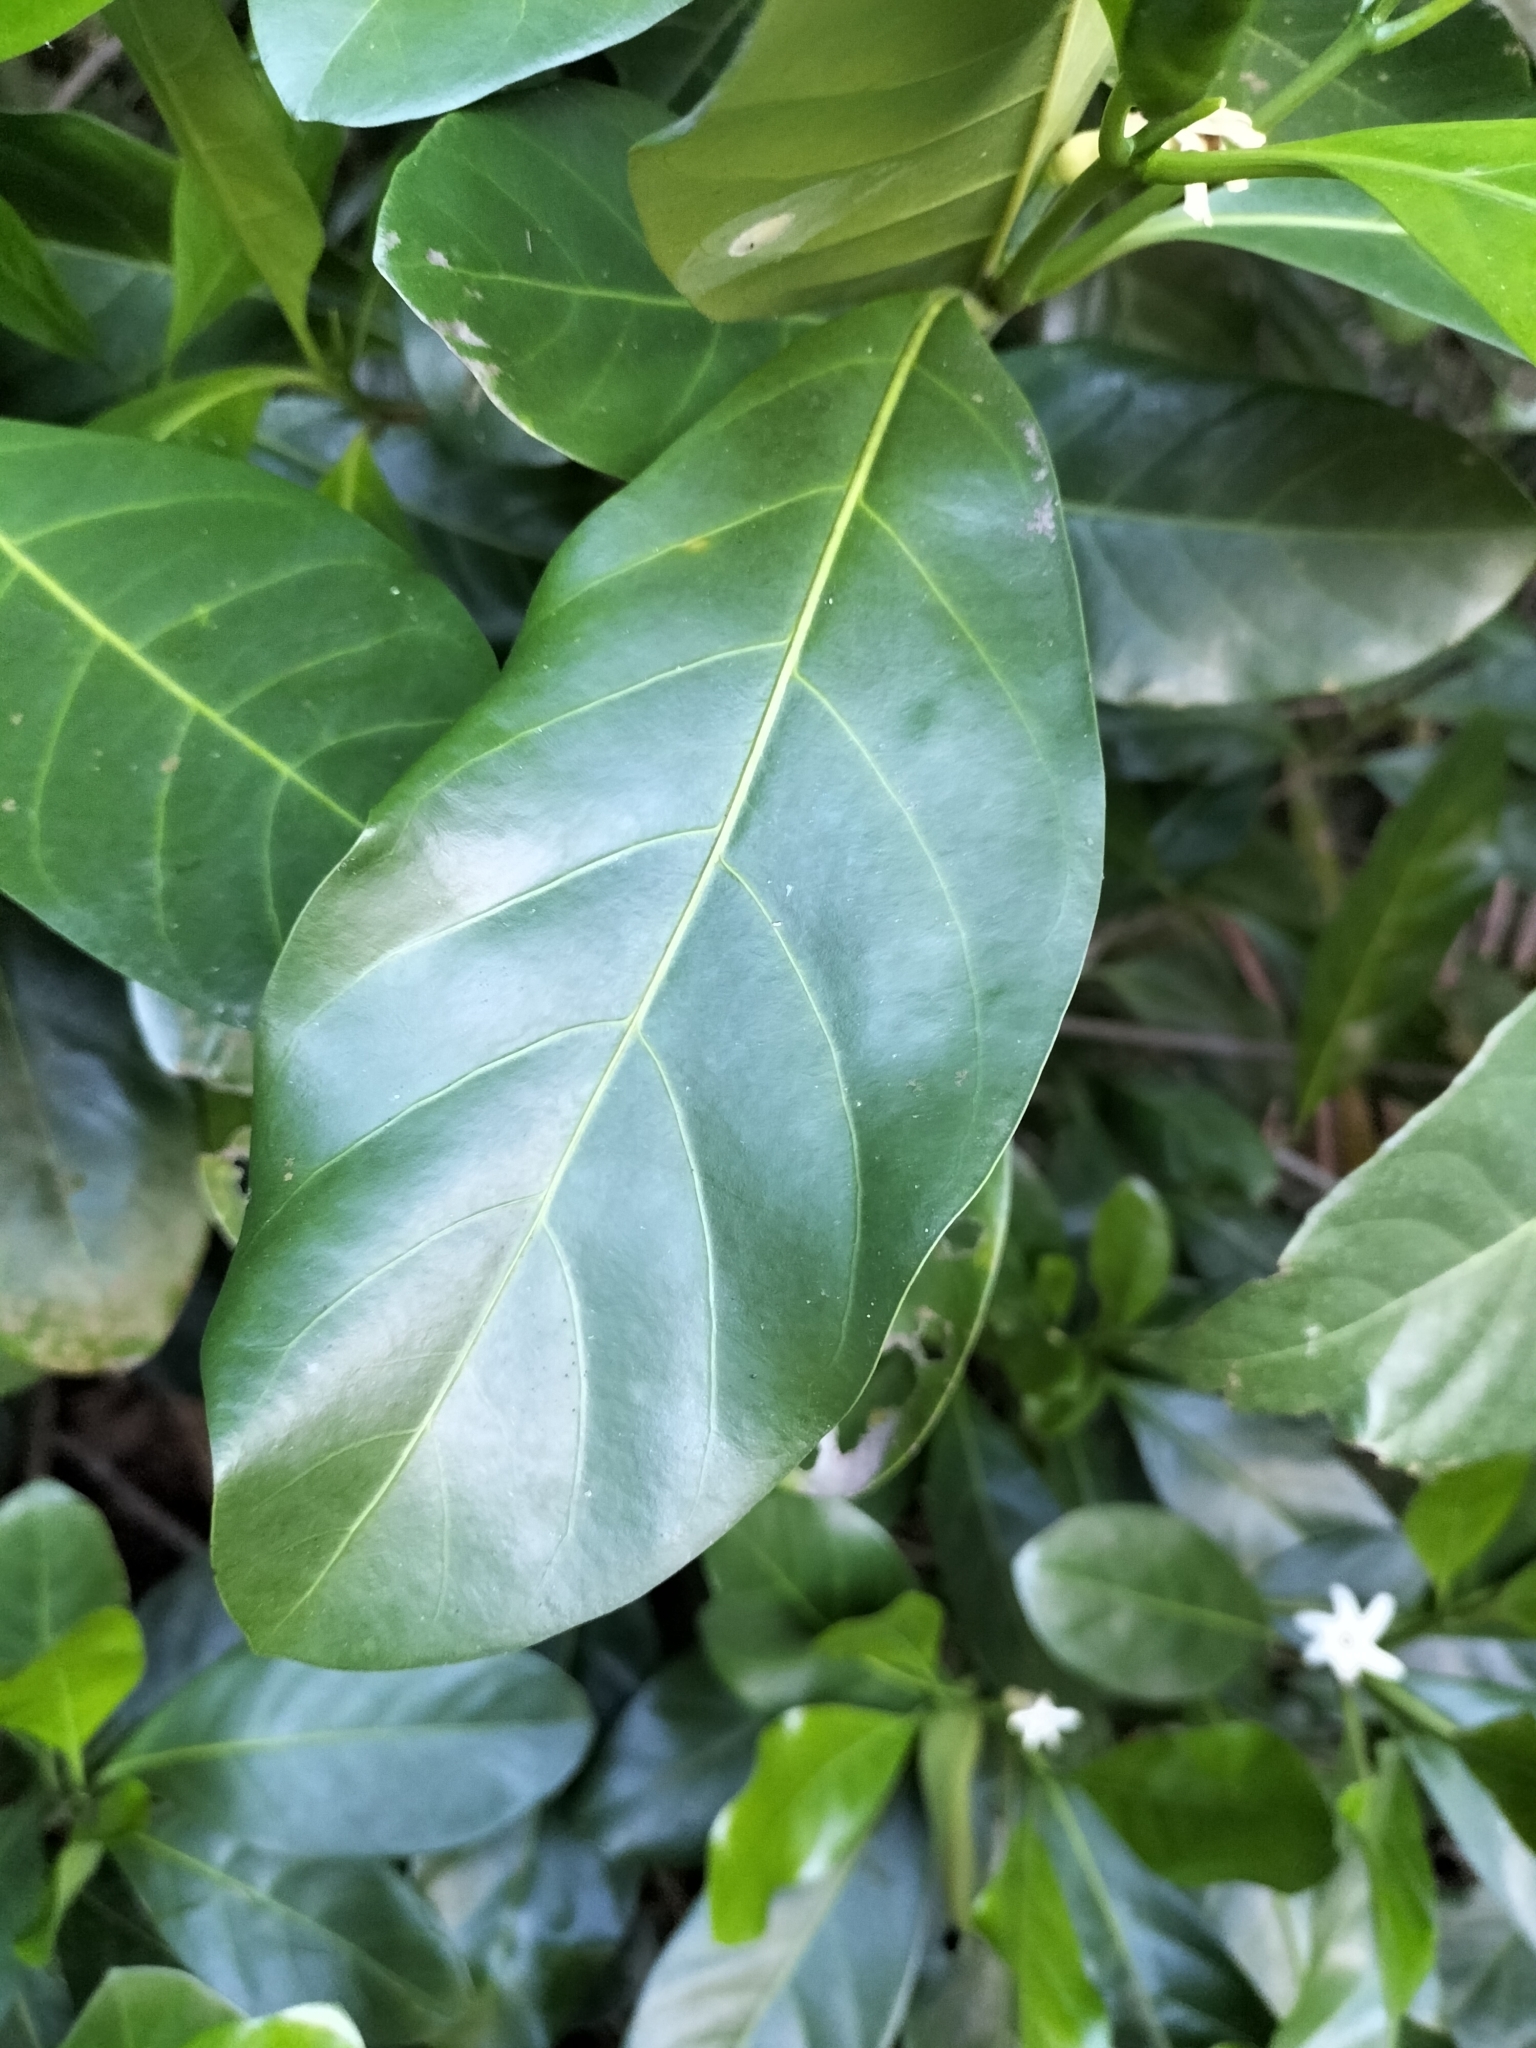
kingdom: Plantae
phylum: Tracheophyta
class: Magnoliopsida
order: Gentianales
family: Rubiaceae
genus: Atractocarpus
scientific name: Atractocarpus fitzalanii
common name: Randia
